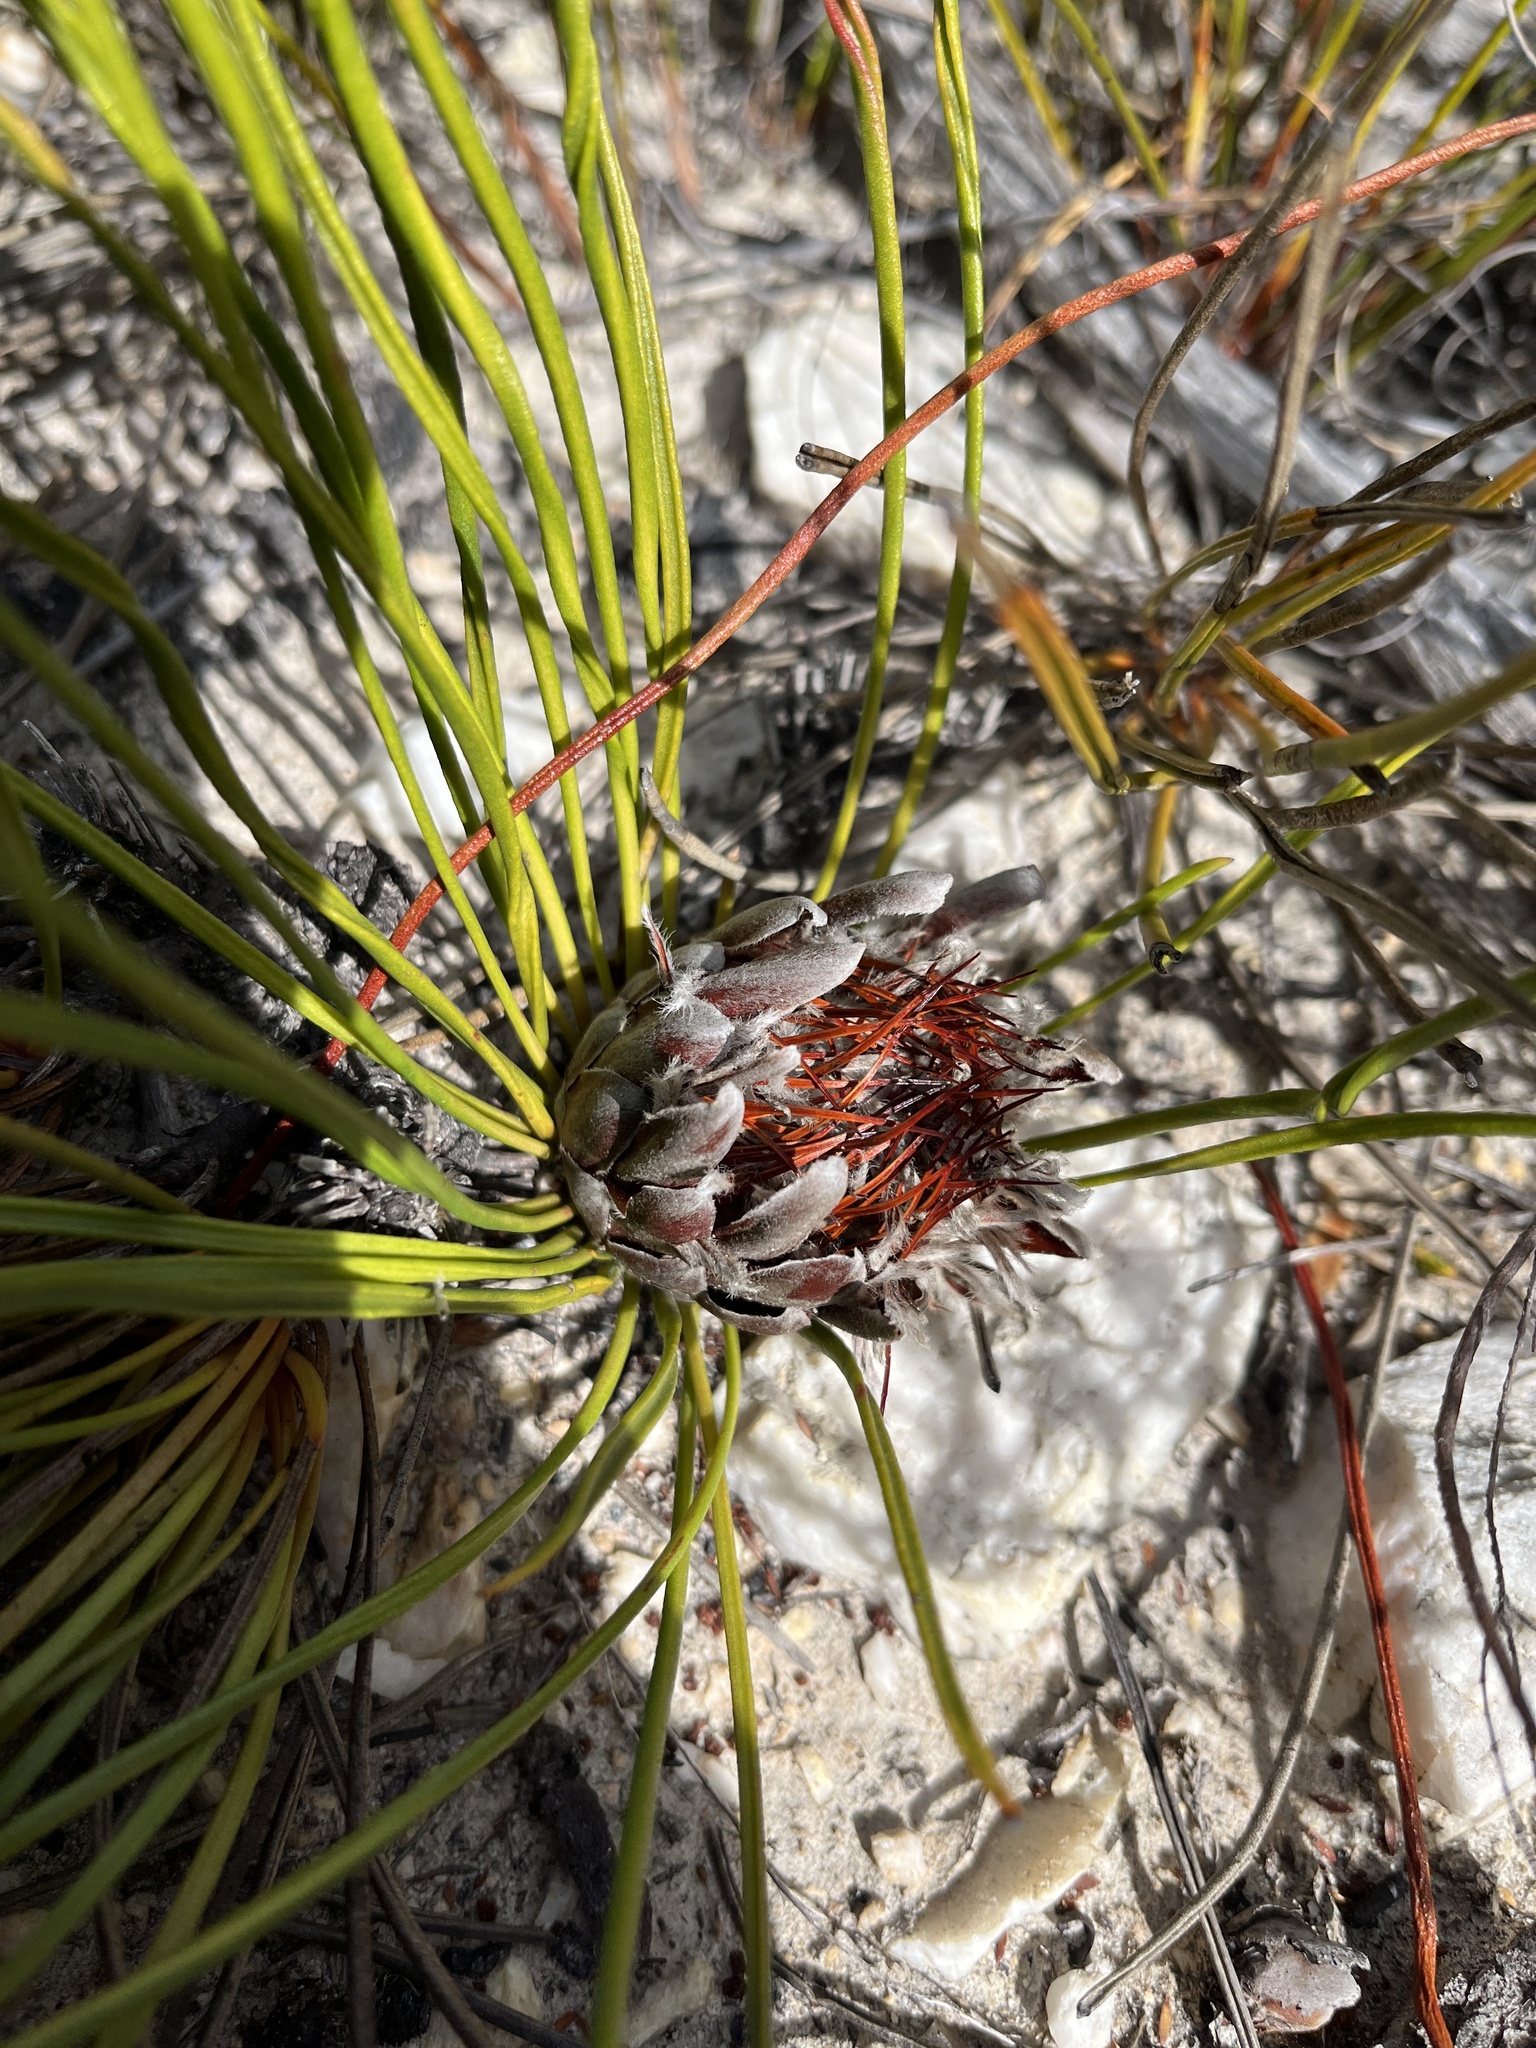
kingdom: Plantae
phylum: Tracheophyta
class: Magnoliopsida
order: Proteales
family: Proteaceae
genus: Protea
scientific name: Protea piscina
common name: Visgat sugarbush
